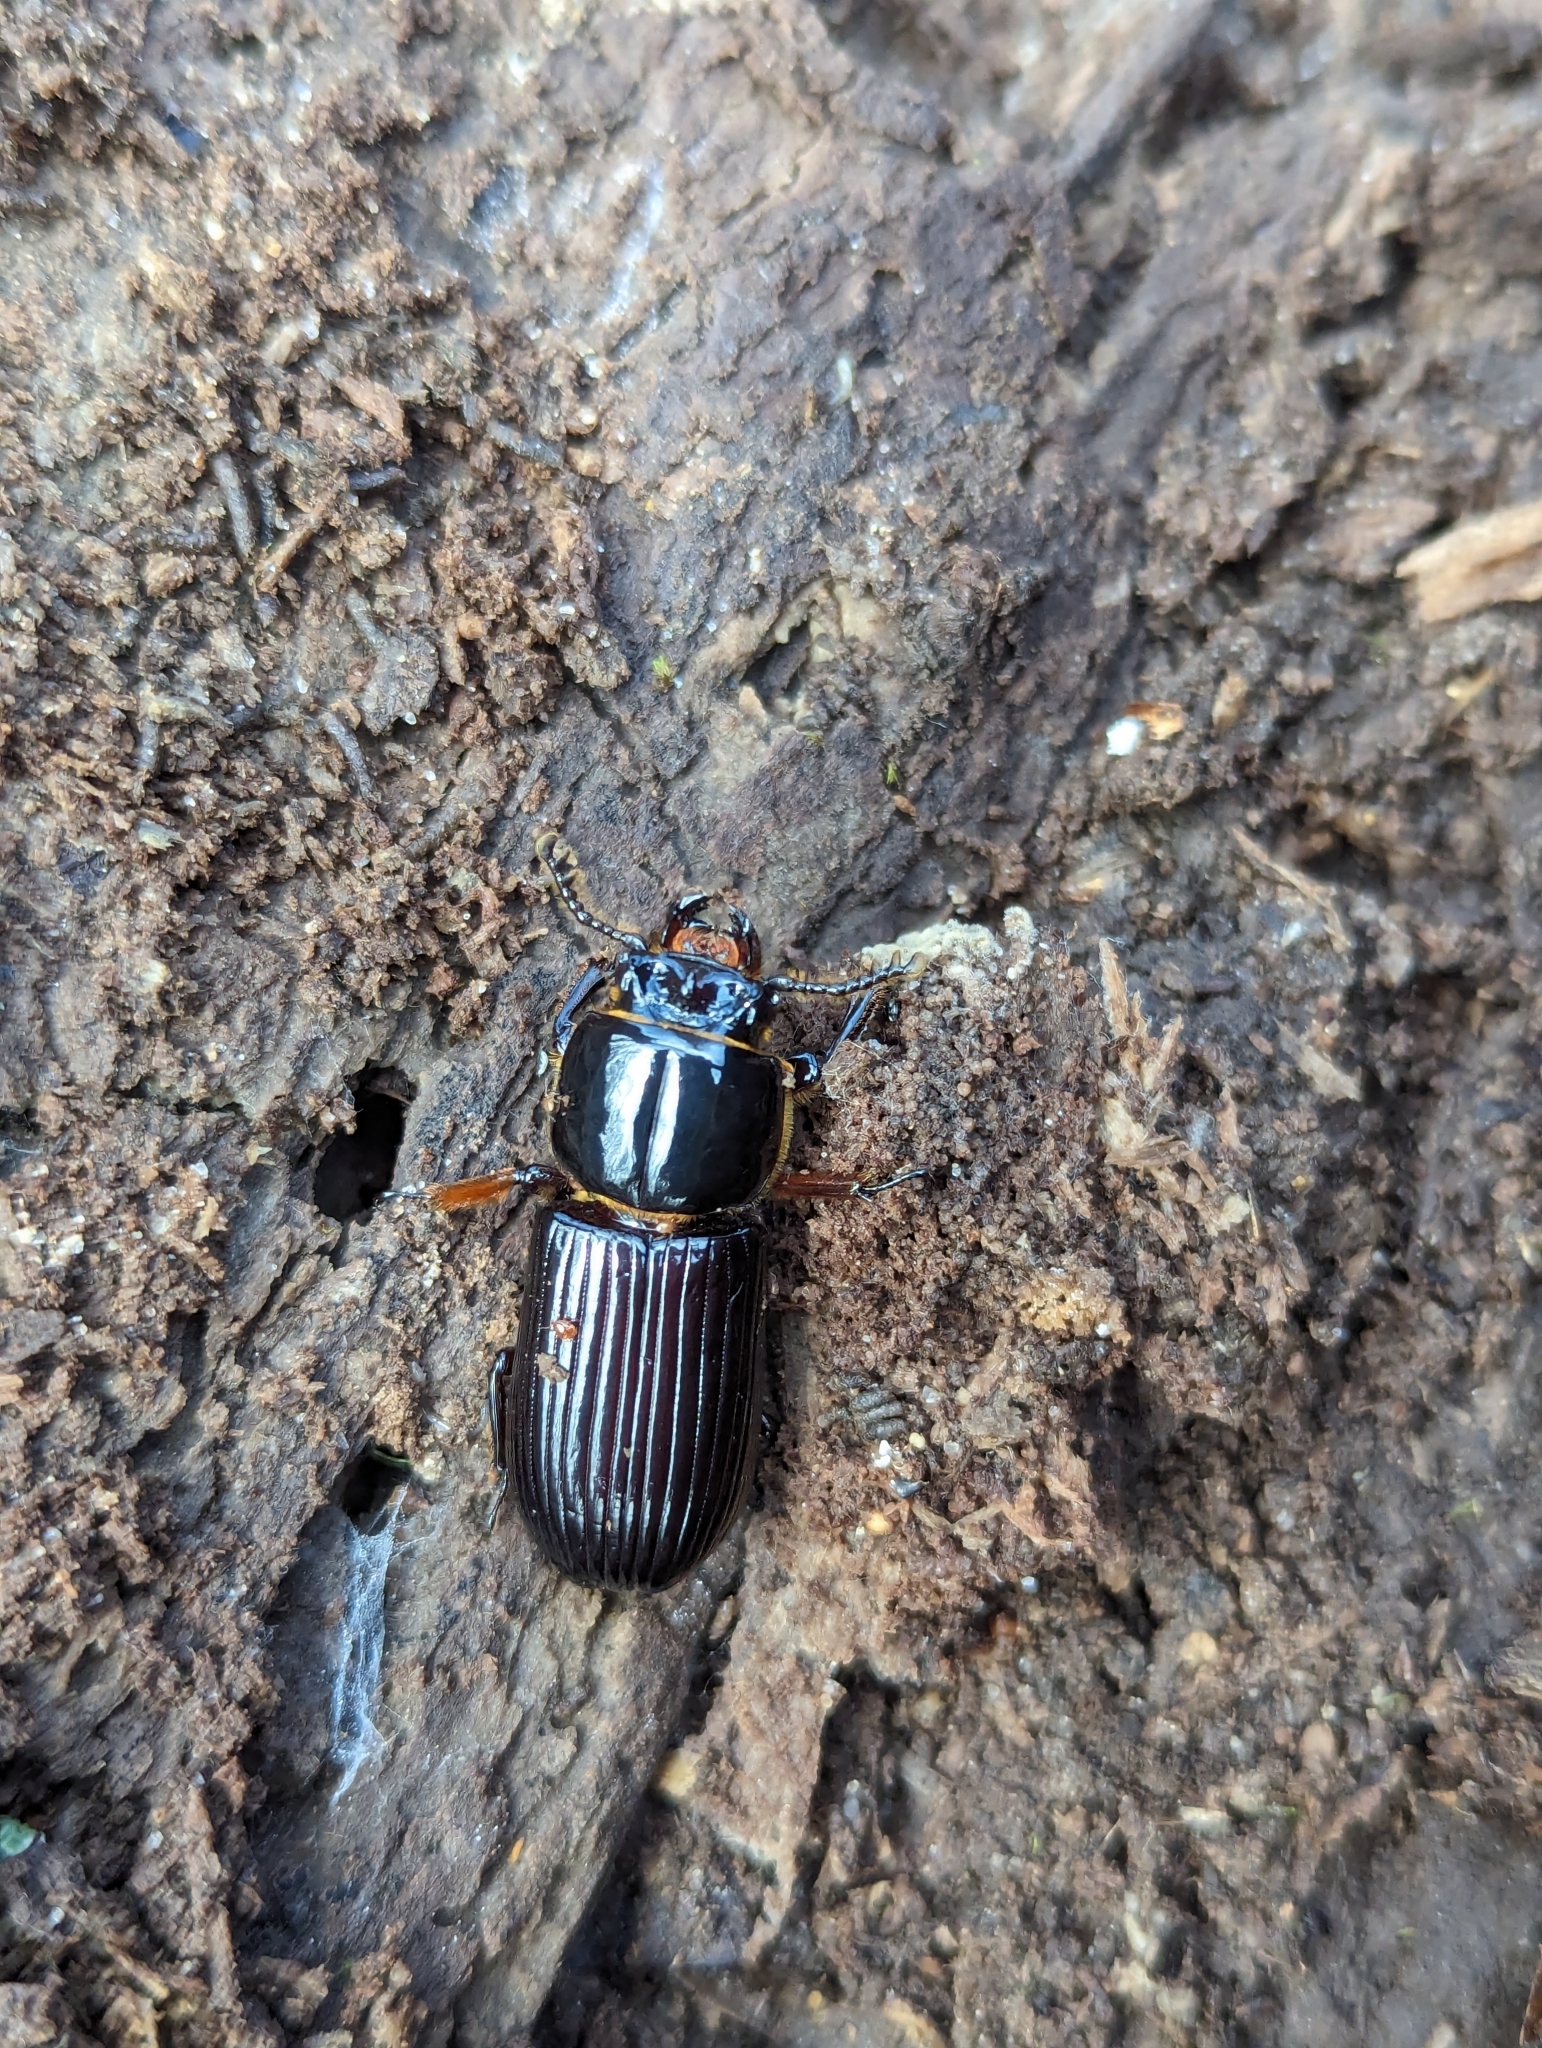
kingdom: Animalia
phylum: Arthropoda
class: Insecta
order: Coleoptera
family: Passalidae
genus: Odontotaenius
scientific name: Odontotaenius disjunctus
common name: Patent leather beetle
